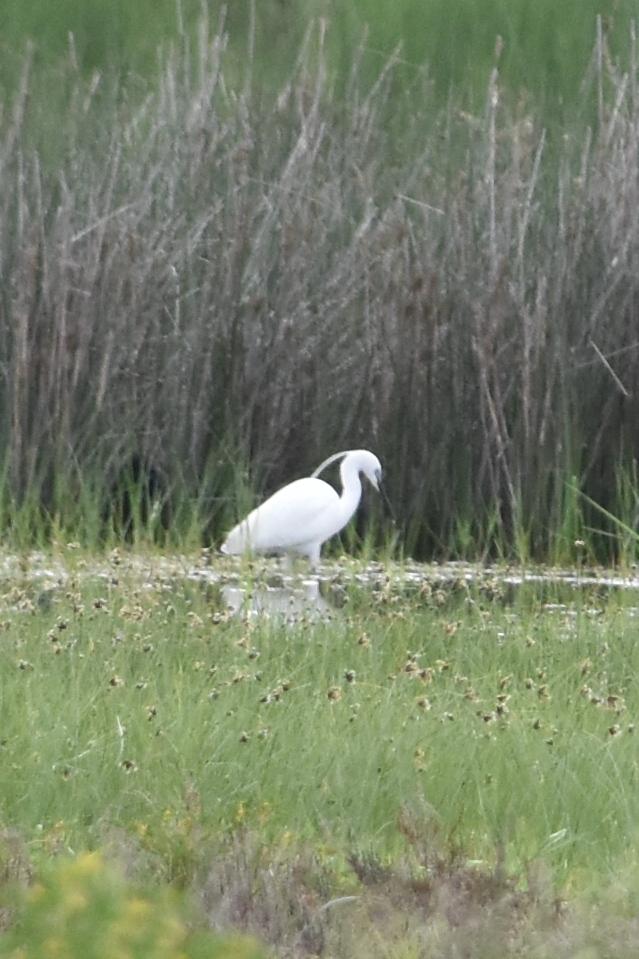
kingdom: Animalia
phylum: Chordata
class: Aves
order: Pelecaniformes
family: Ardeidae
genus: Egretta
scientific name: Egretta garzetta
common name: Little egret
